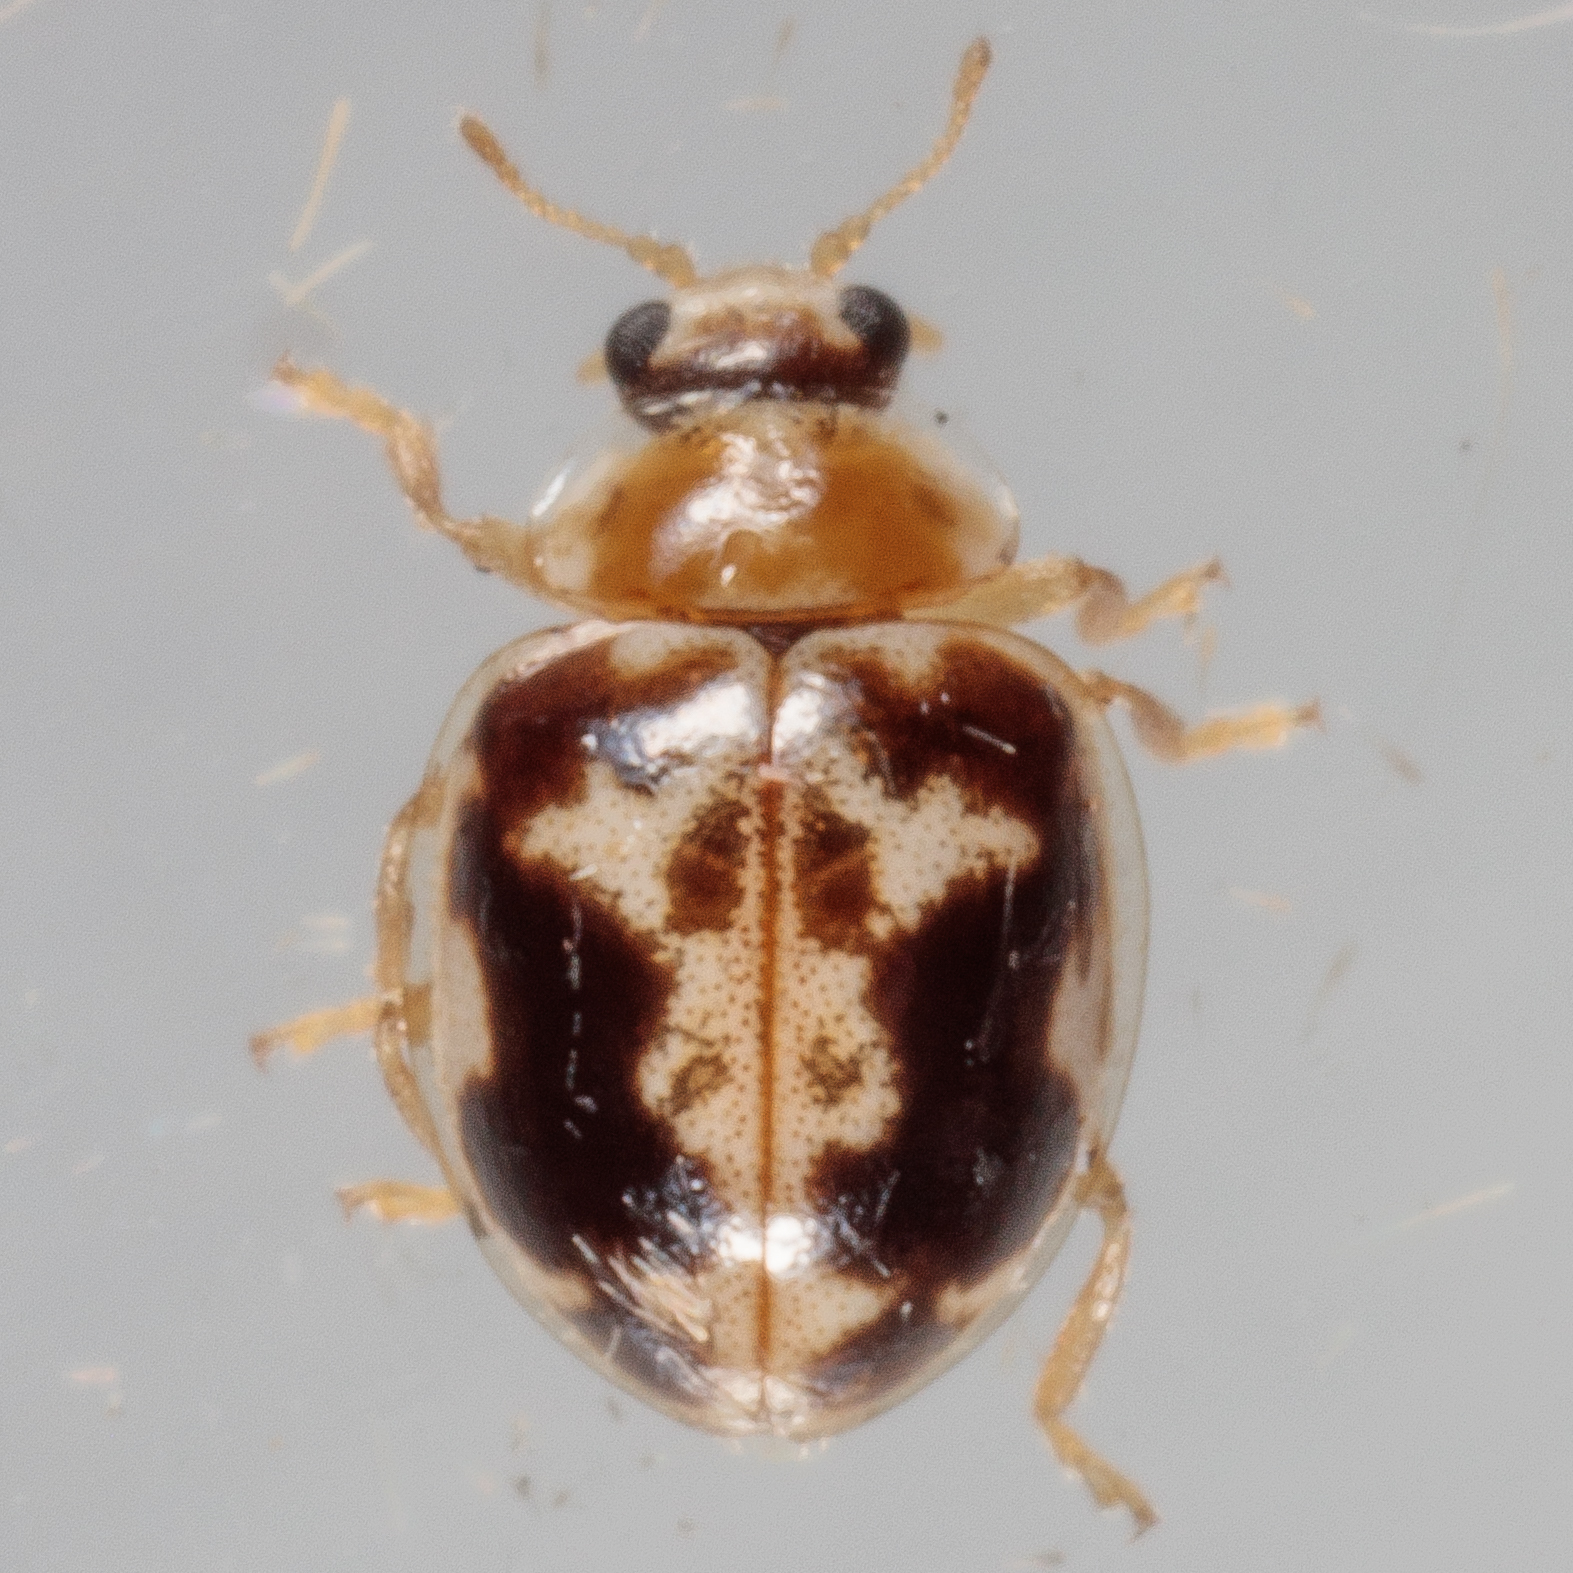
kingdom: Animalia
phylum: Arthropoda
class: Insecta
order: Coleoptera
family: Coccinellidae
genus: Psyllobora
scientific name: Psyllobora renifer
